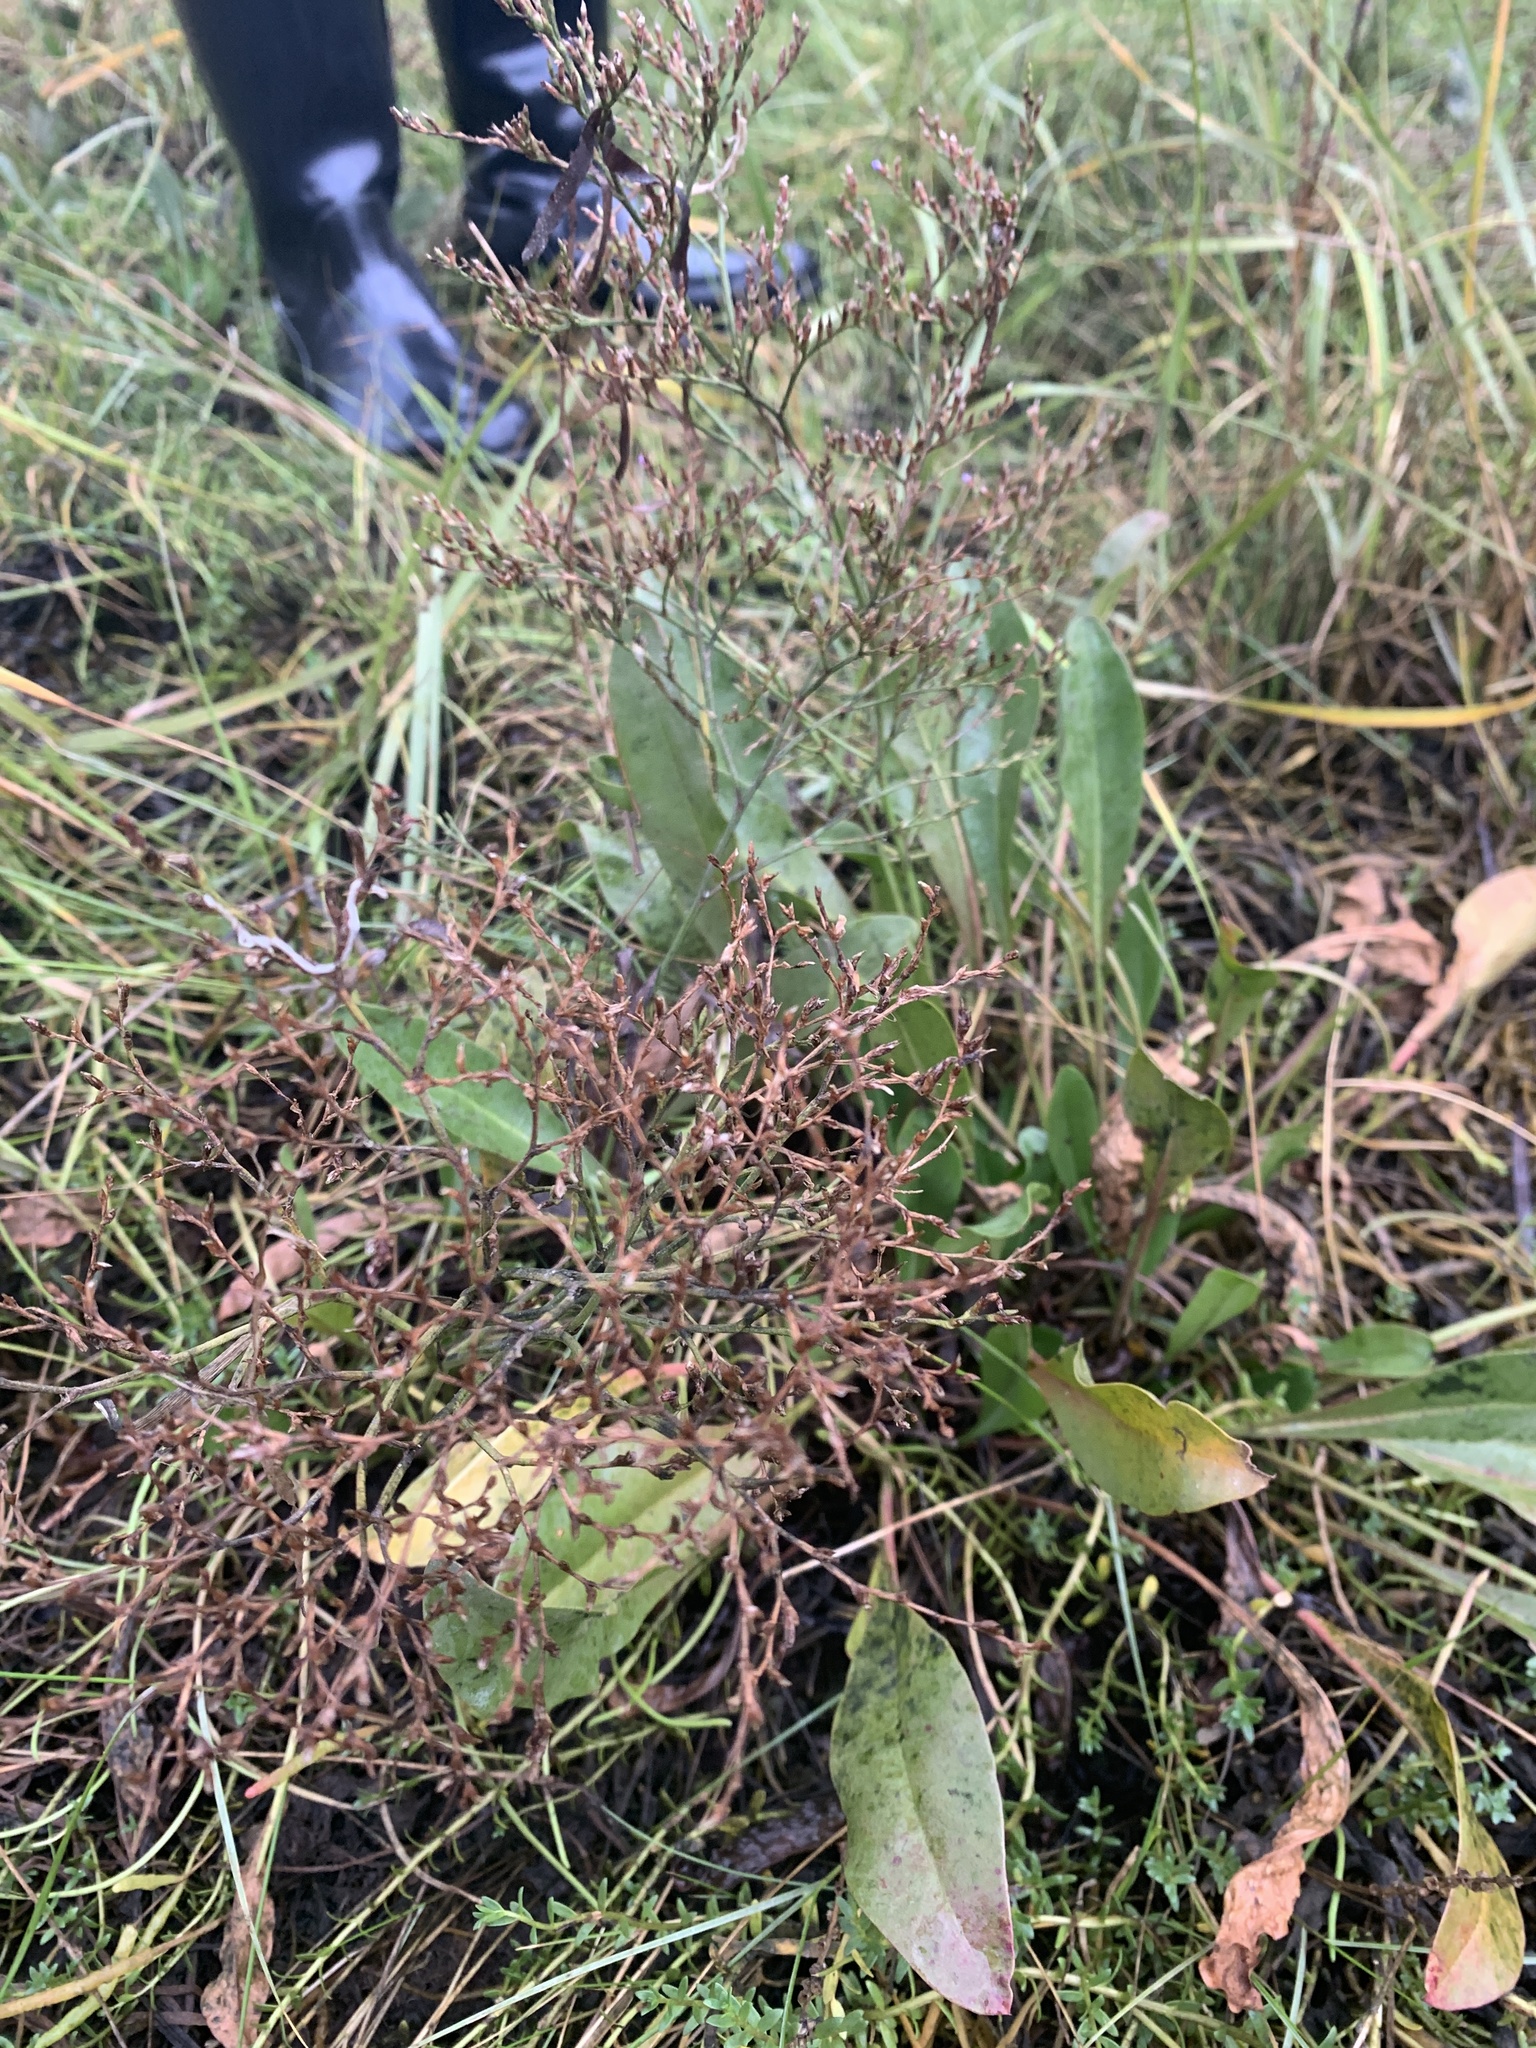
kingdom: Plantae
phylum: Tracheophyta
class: Magnoliopsida
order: Caryophyllales
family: Plumbaginaceae
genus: Limonium
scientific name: Limonium carolinianum
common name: Carolina sea lavender
